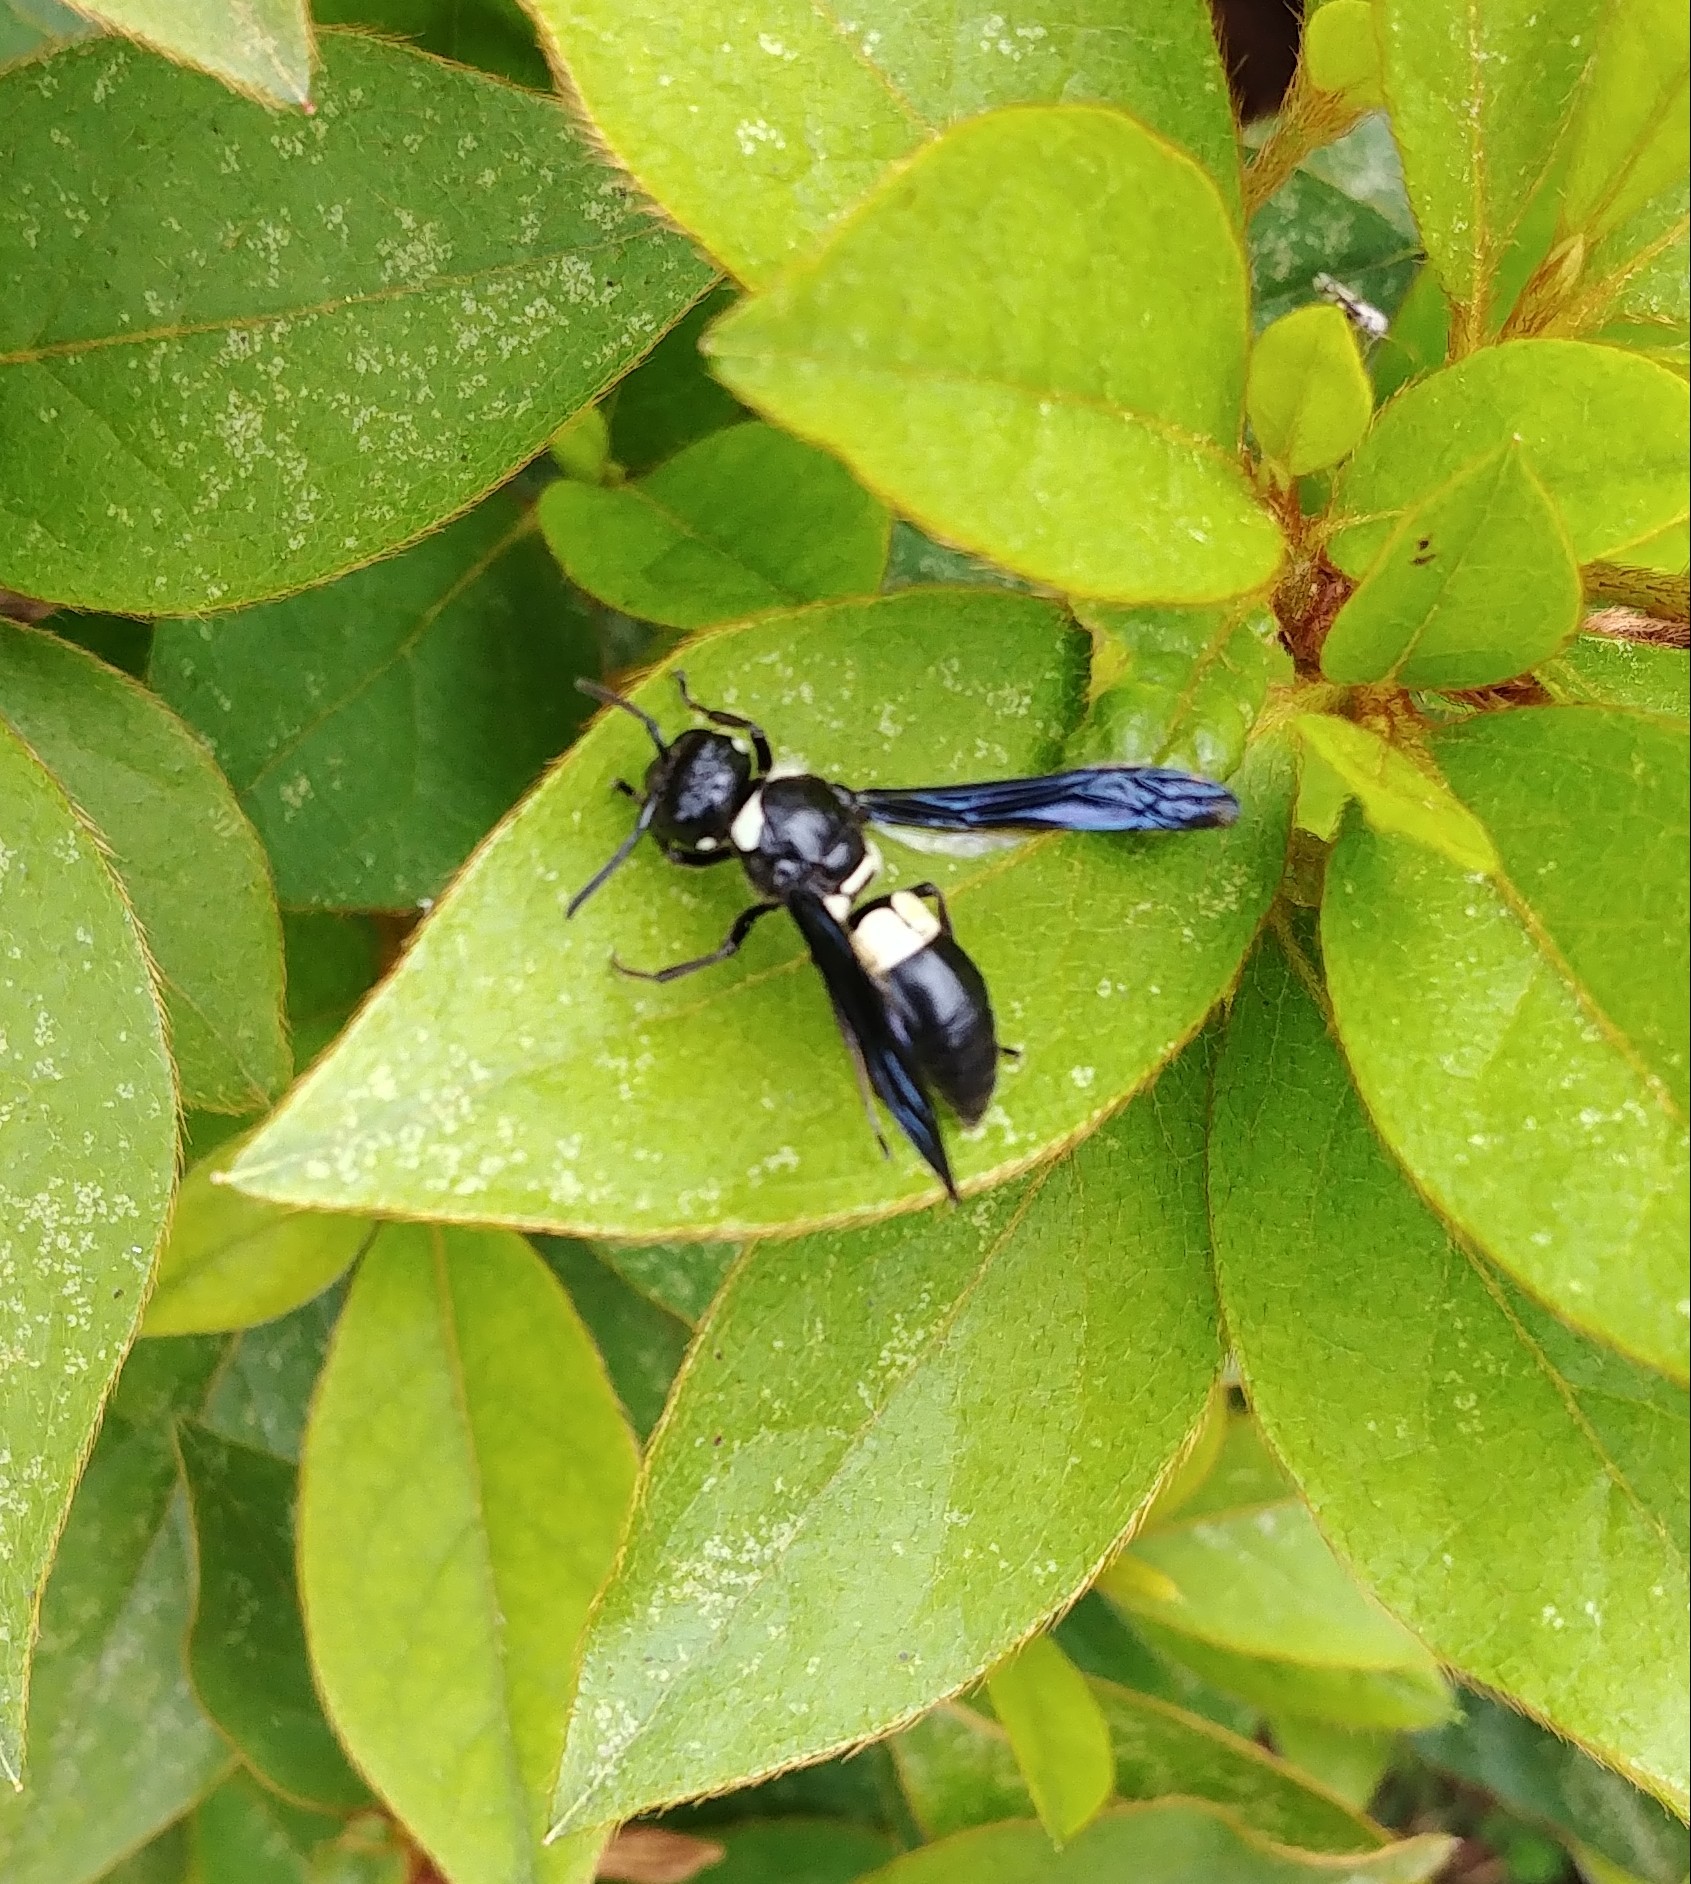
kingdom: Animalia
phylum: Arthropoda
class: Insecta
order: Hymenoptera
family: Eumenidae
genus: Euodynerus
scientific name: Euodynerus bidens
